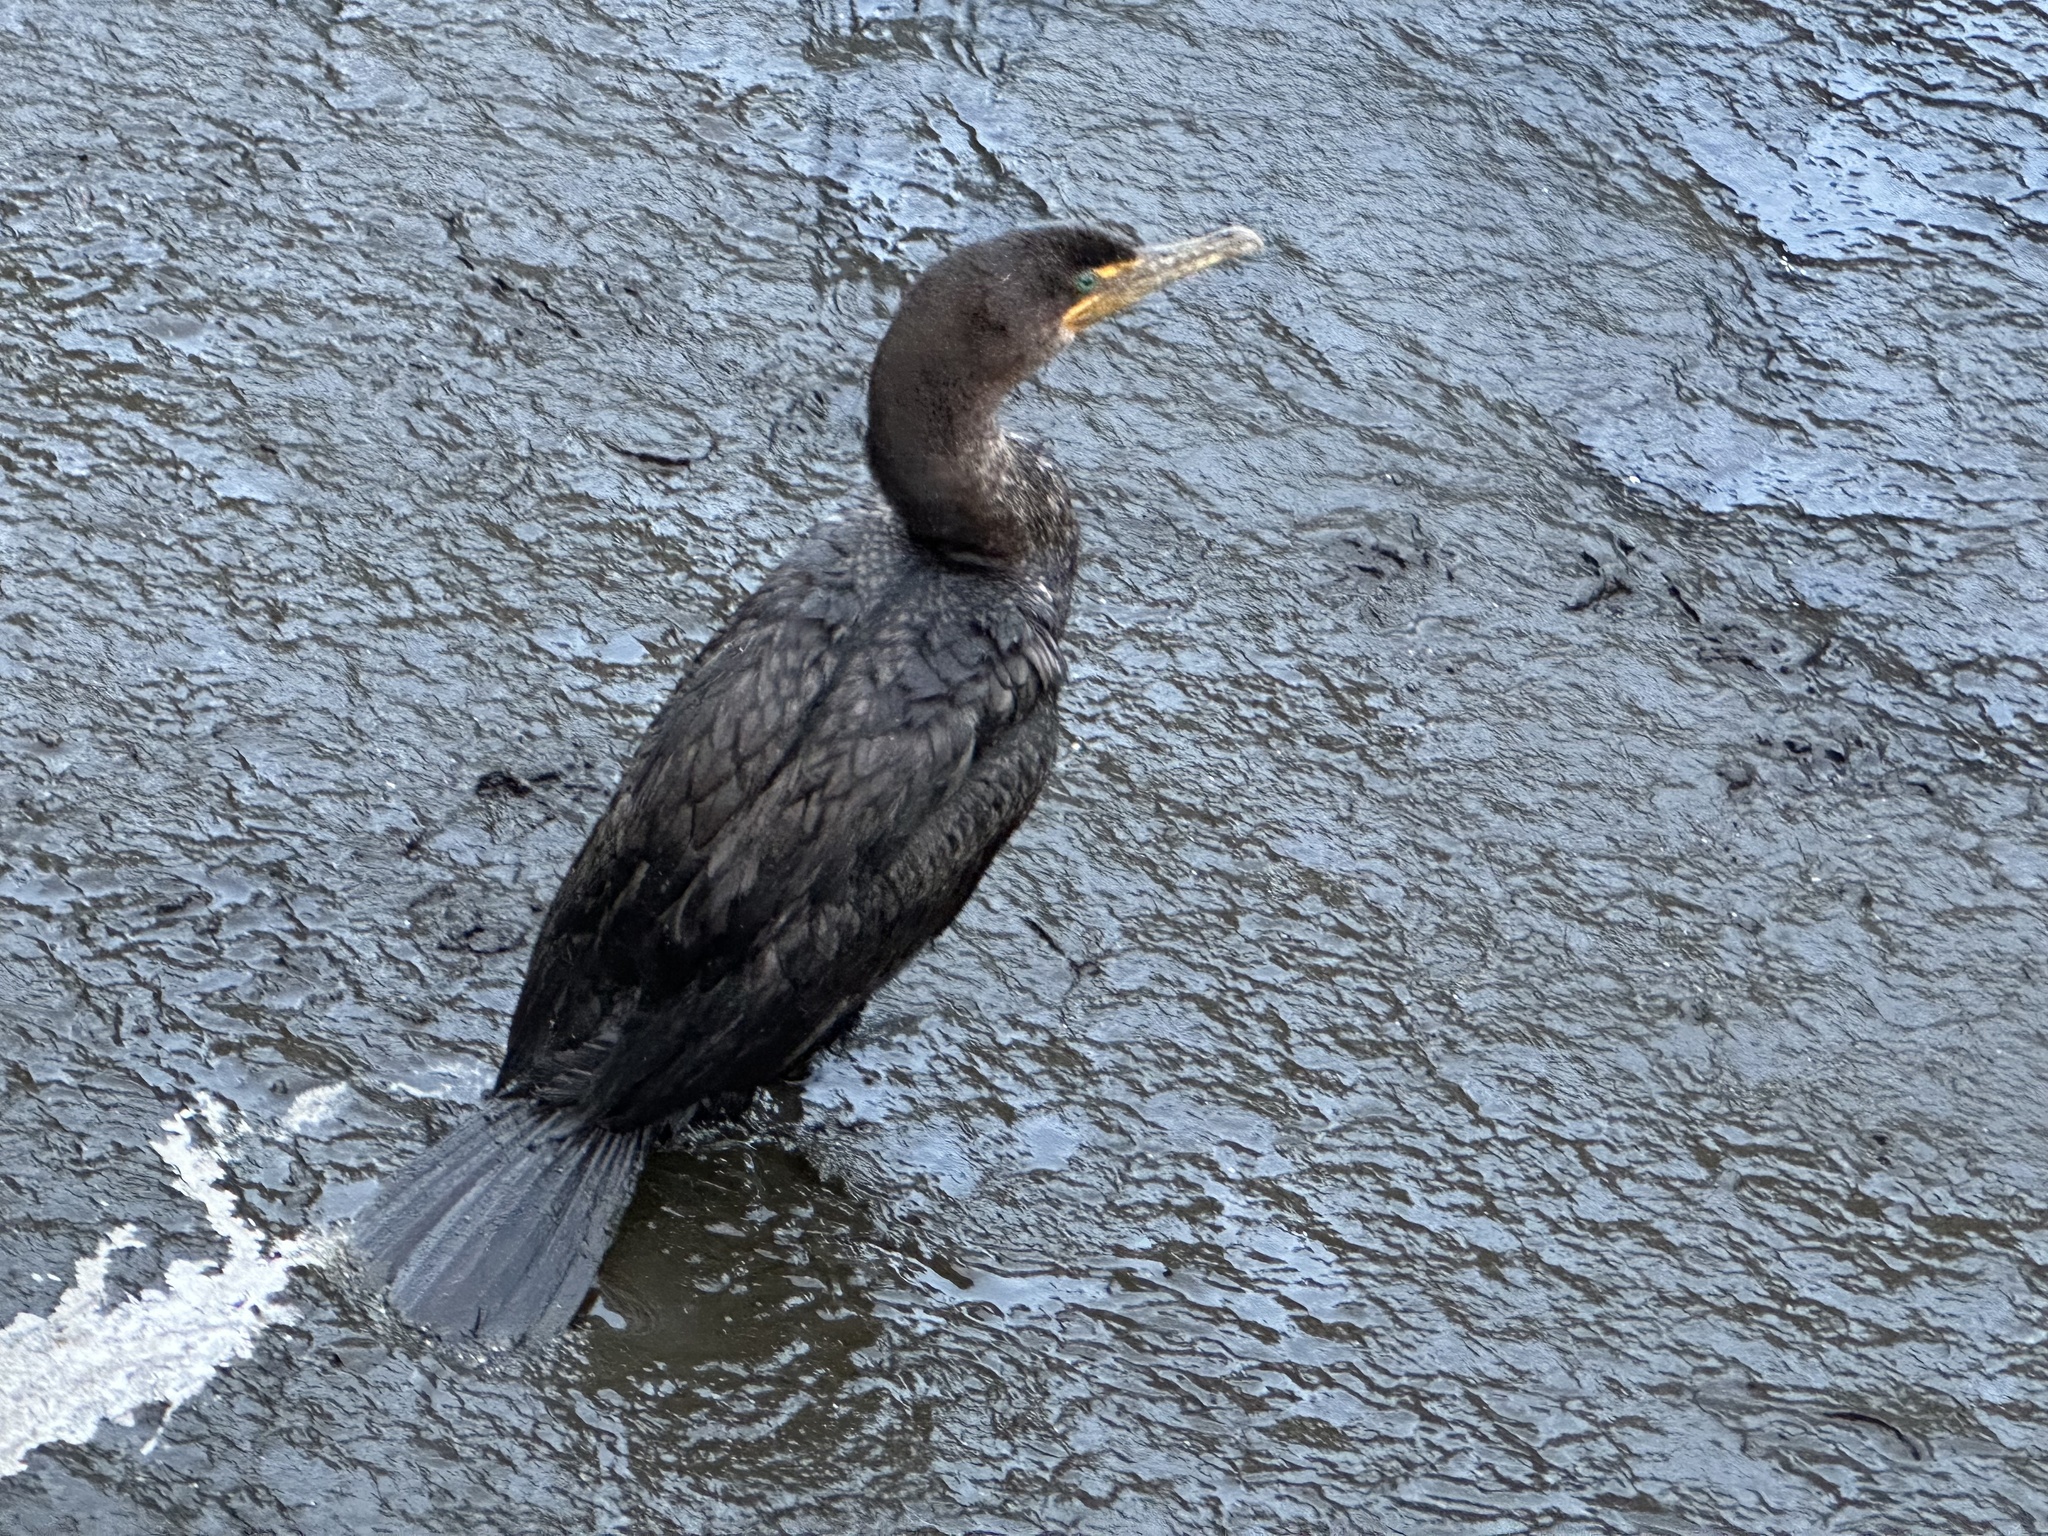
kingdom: Animalia
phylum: Chordata
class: Aves
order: Suliformes
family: Phalacrocoracidae
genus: Phalacrocorax
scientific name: Phalacrocorax auritus
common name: Double-crested cormorant
